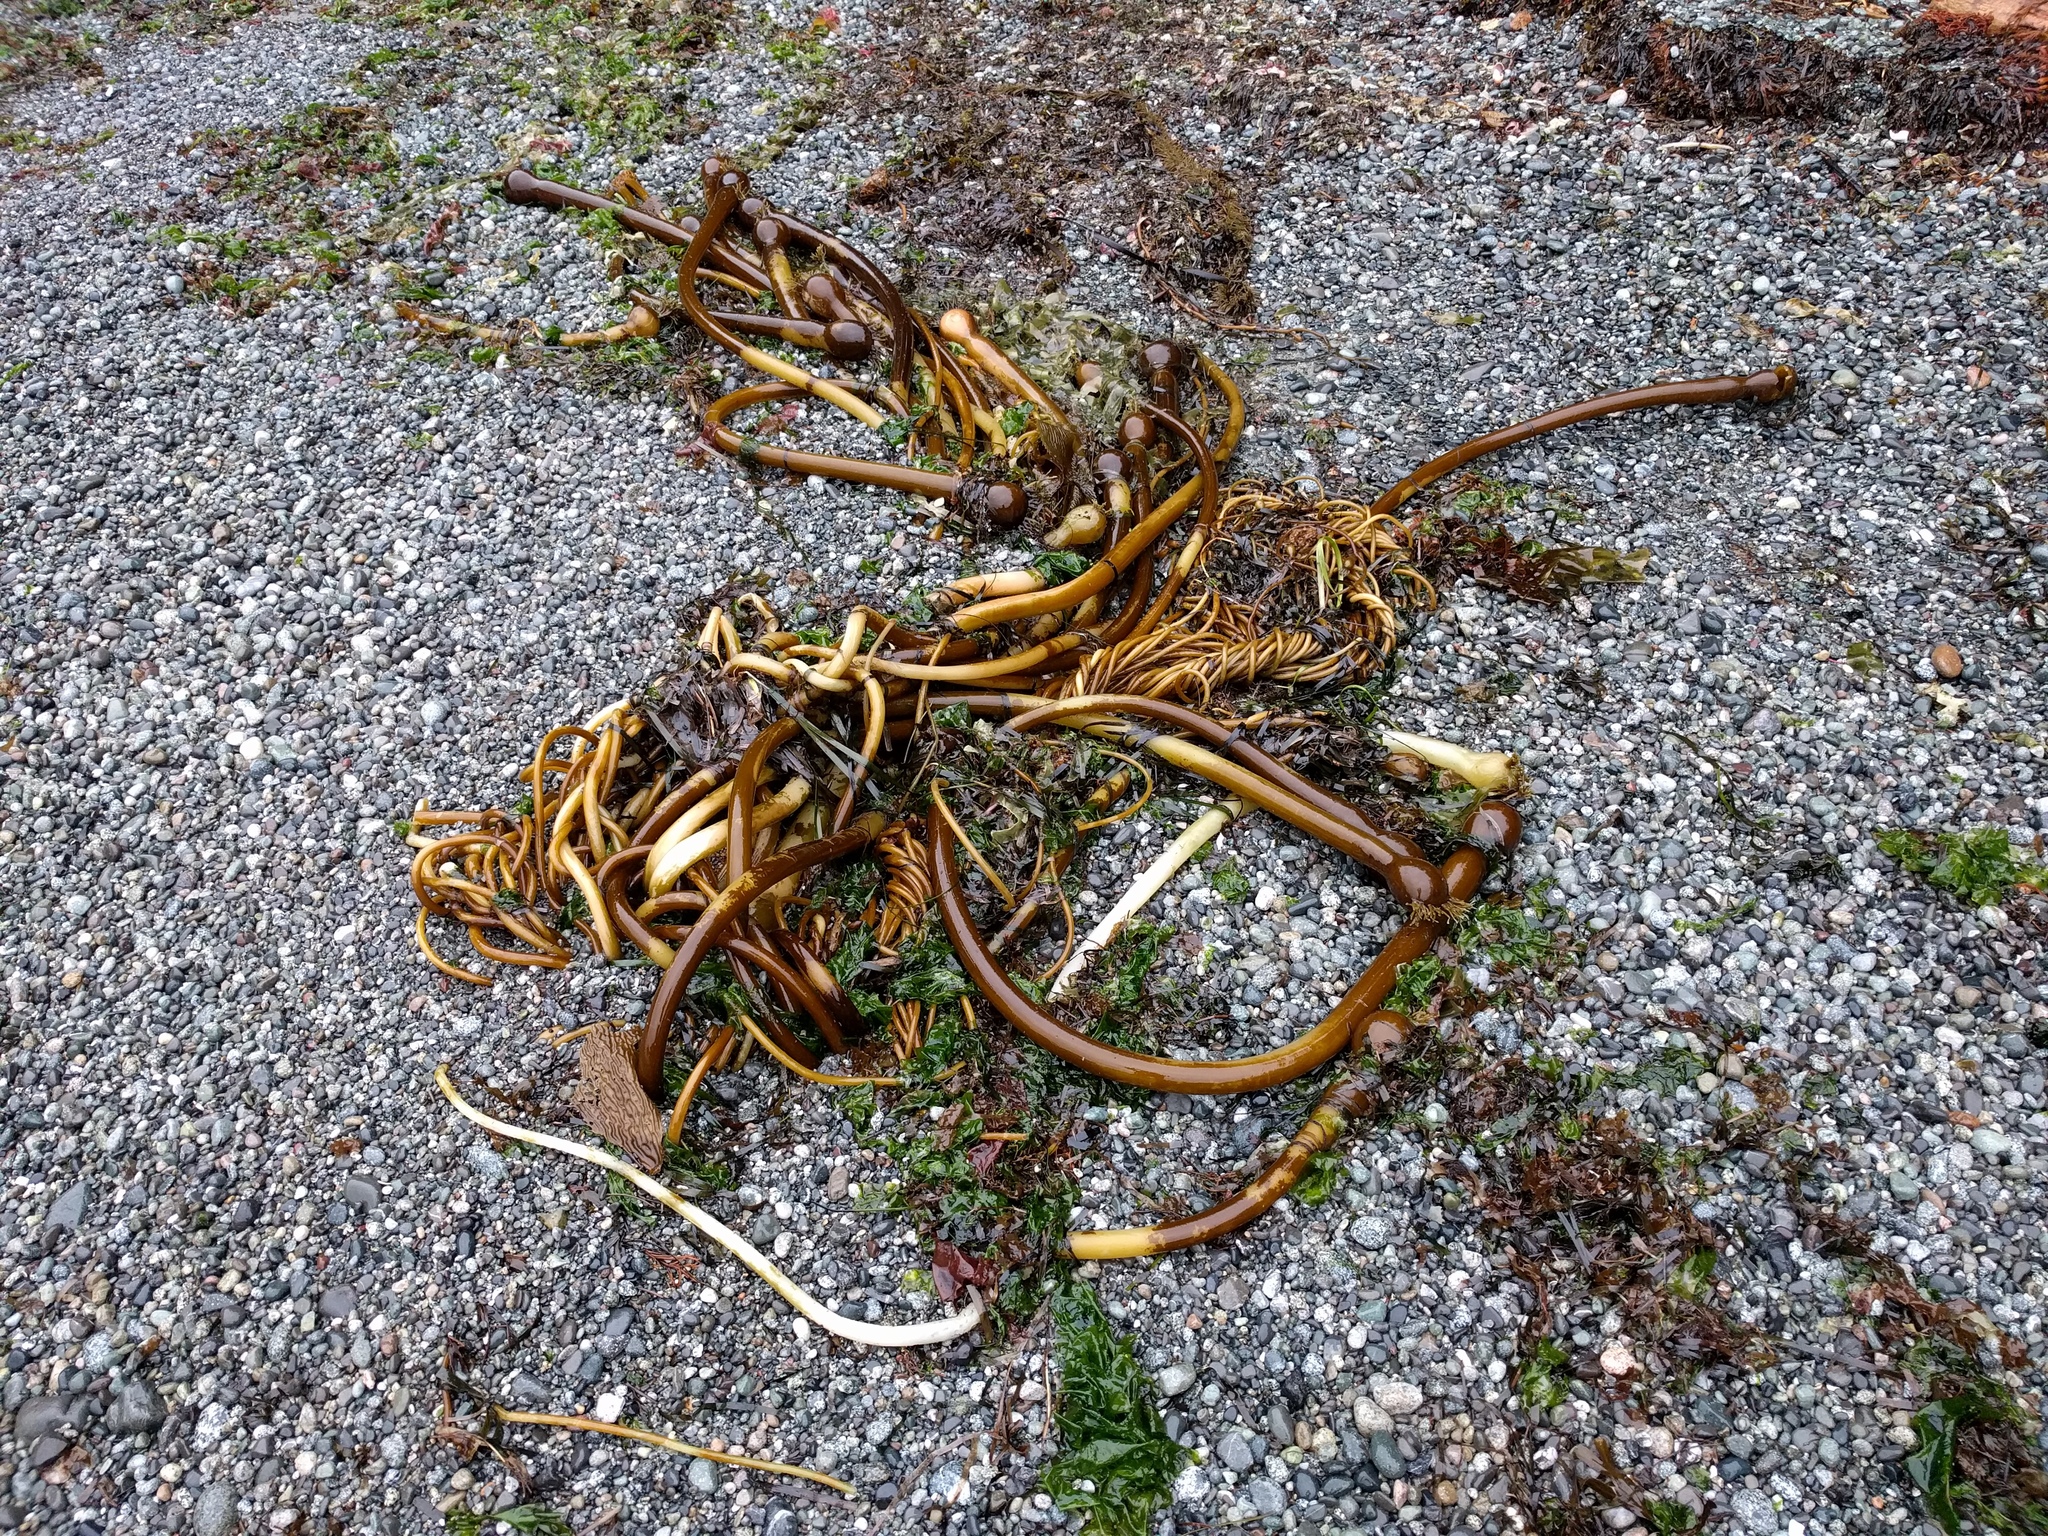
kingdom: Chromista
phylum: Ochrophyta
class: Phaeophyceae
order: Laminariales
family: Laminariaceae
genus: Nereocystis
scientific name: Nereocystis luetkeana
